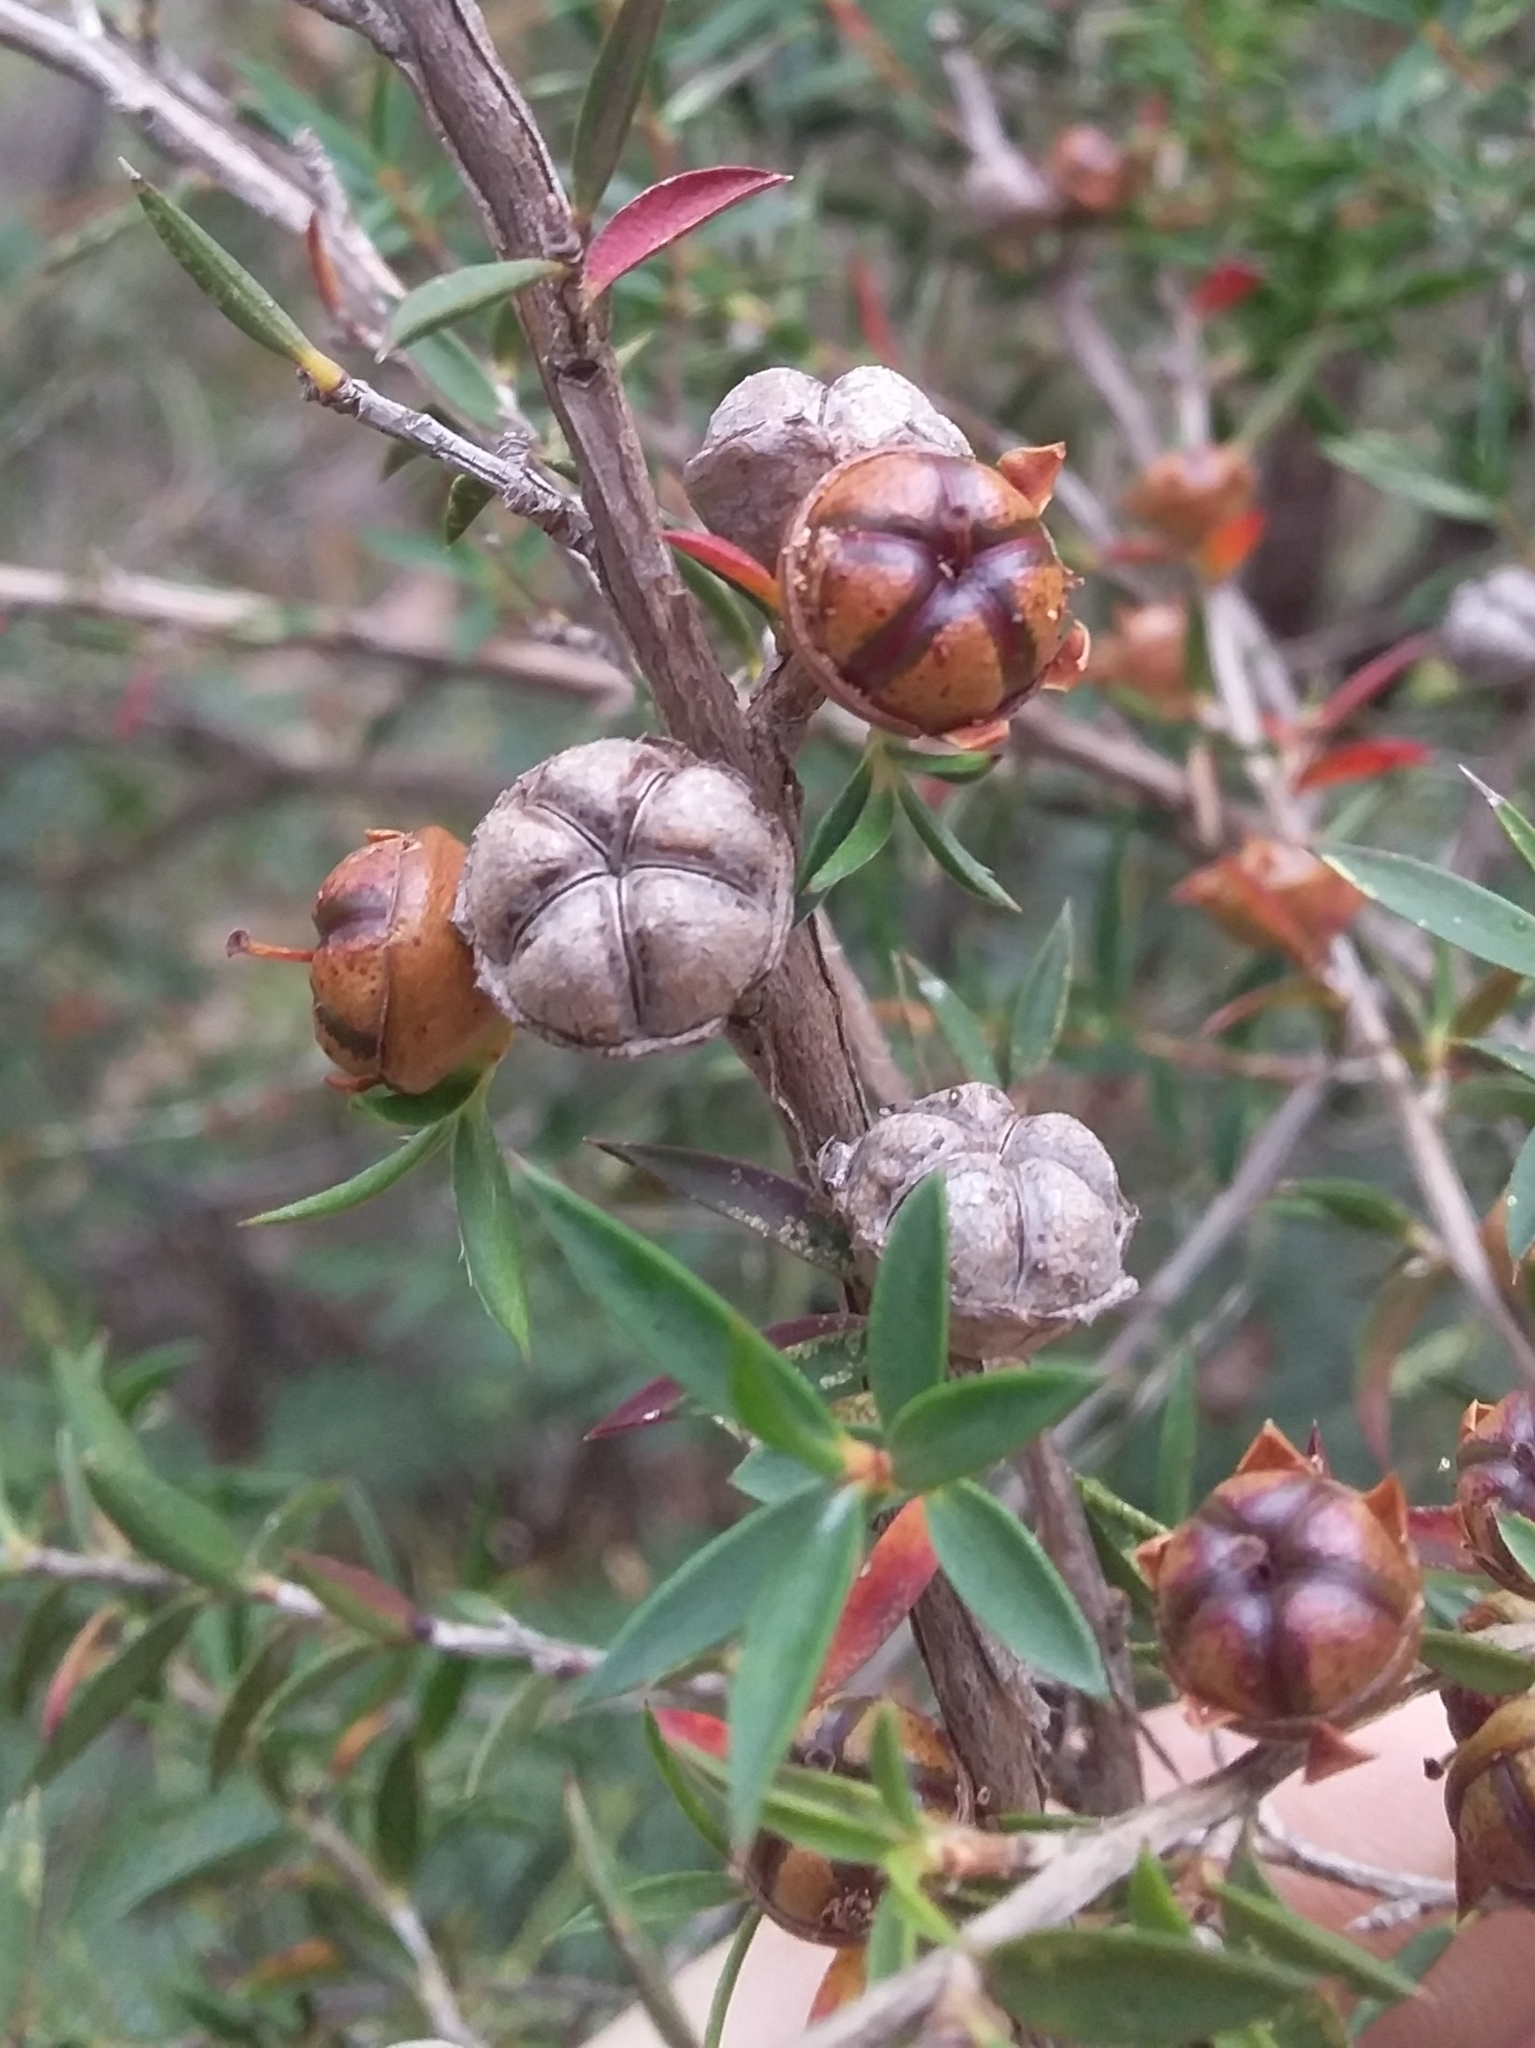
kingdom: Plantae
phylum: Tracheophyta
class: Magnoliopsida
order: Myrtales
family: Myrtaceae
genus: Leptospermum
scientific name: Leptospermum continentale
